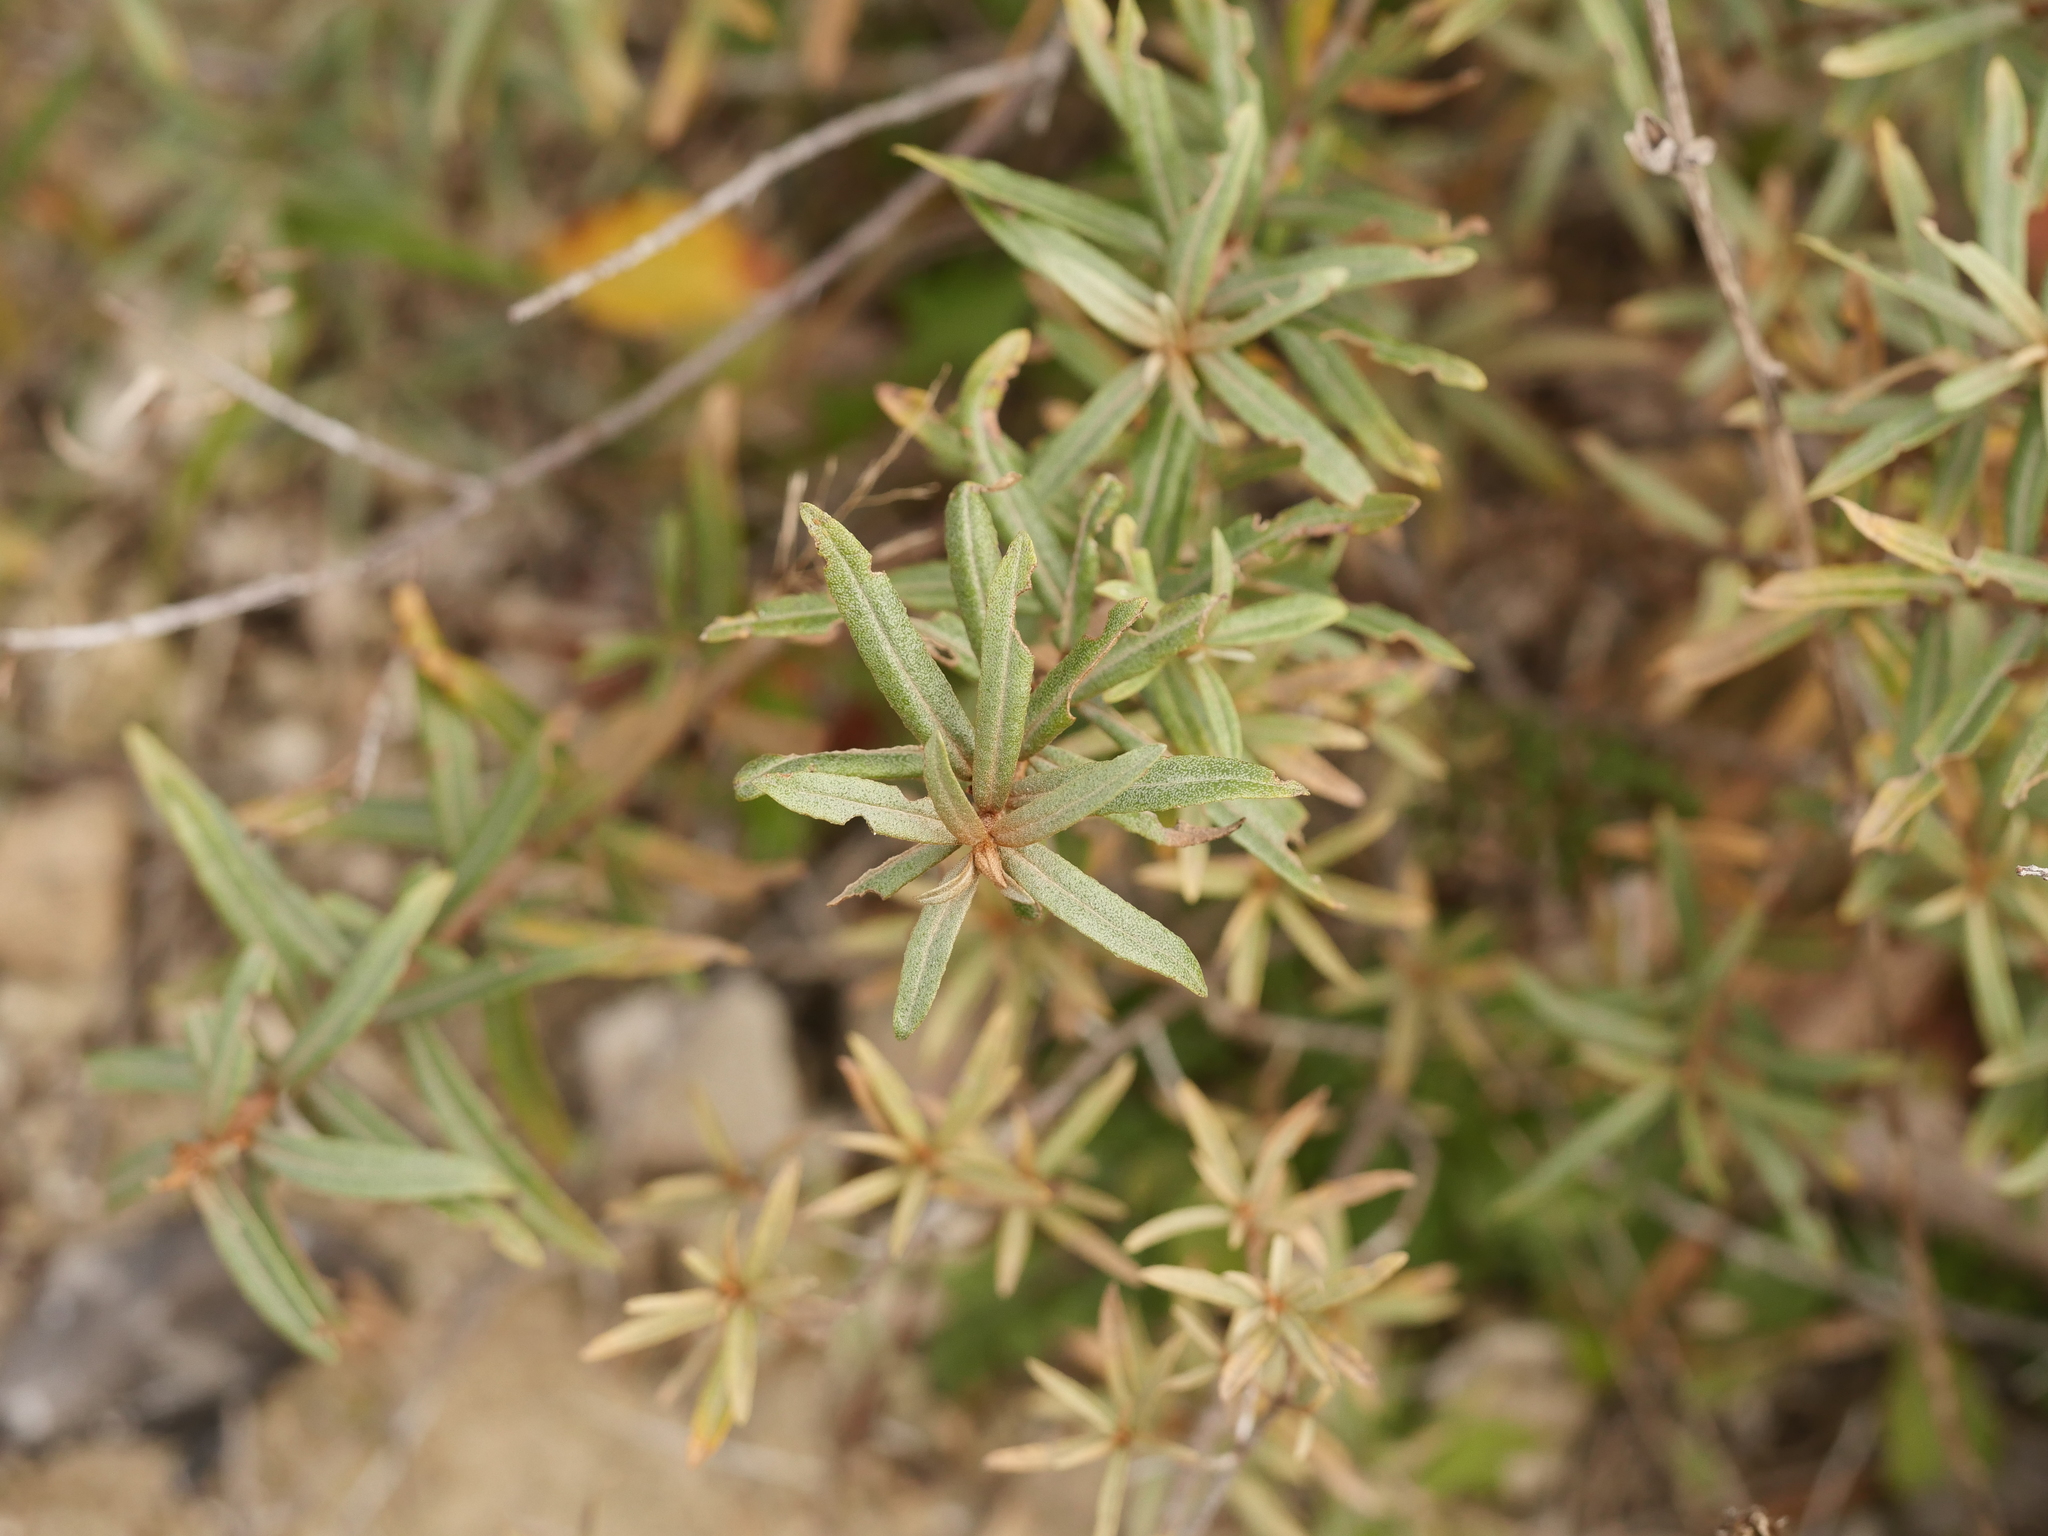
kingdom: Plantae
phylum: Tracheophyta
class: Magnoliopsida
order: Rosales
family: Elaeagnaceae
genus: Hippophae
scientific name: Hippophae rhamnoides
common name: Sea-buckthorn
